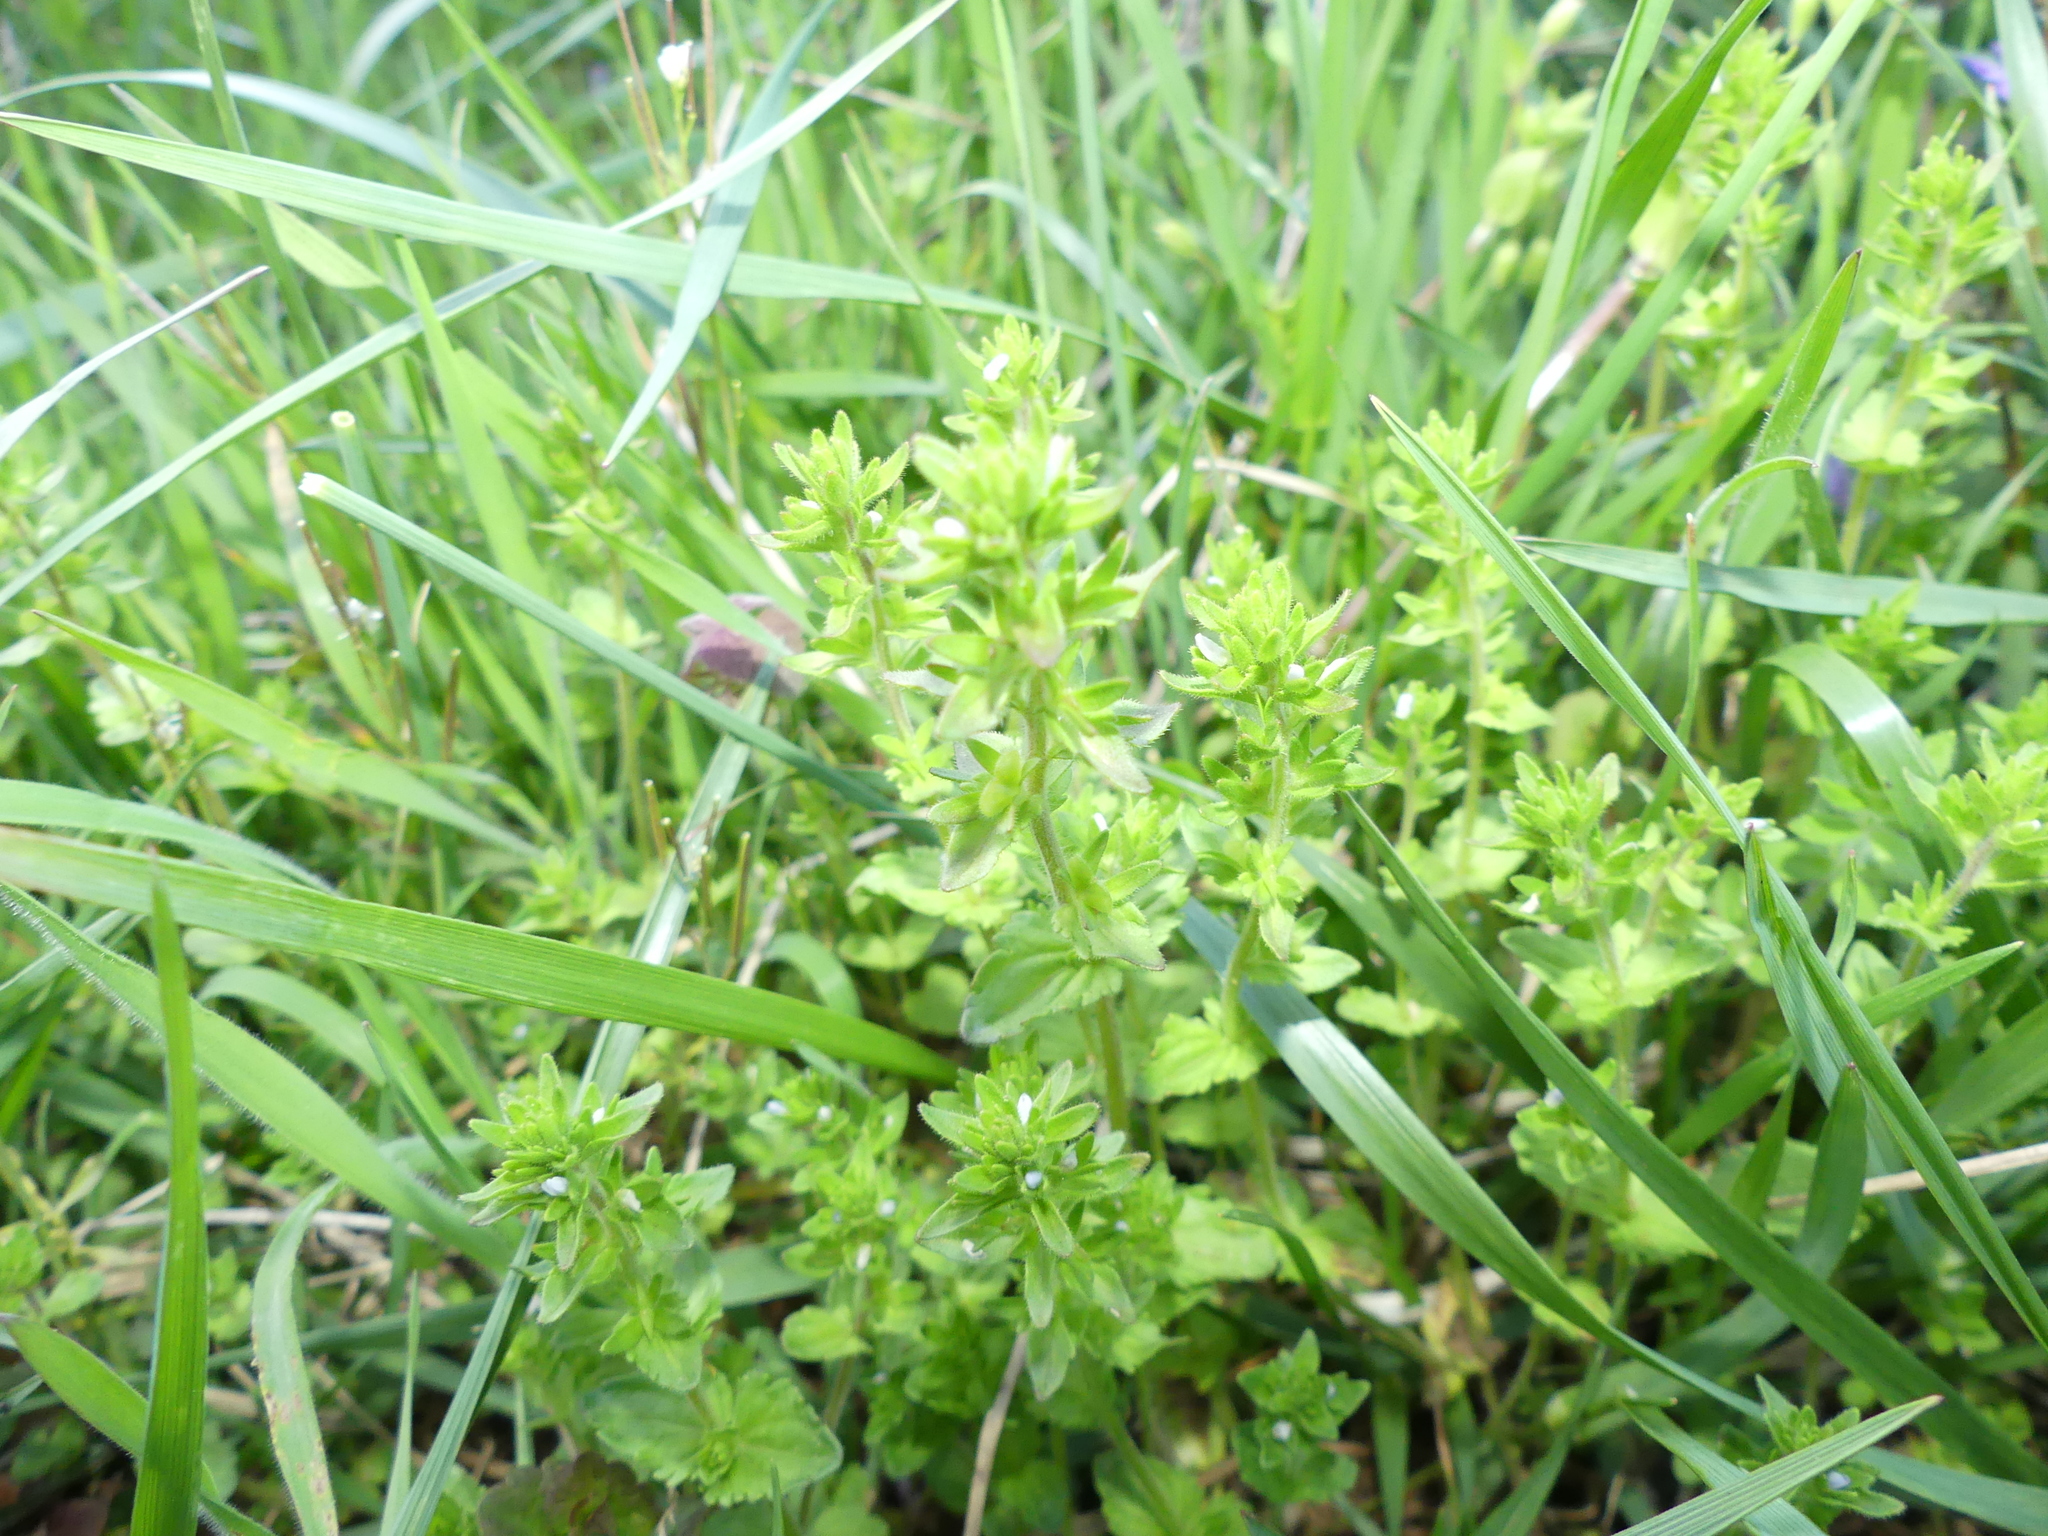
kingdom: Plantae
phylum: Tracheophyta
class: Magnoliopsida
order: Lamiales
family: Plantaginaceae
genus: Veronica
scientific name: Veronica arvensis
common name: Corn speedwell
